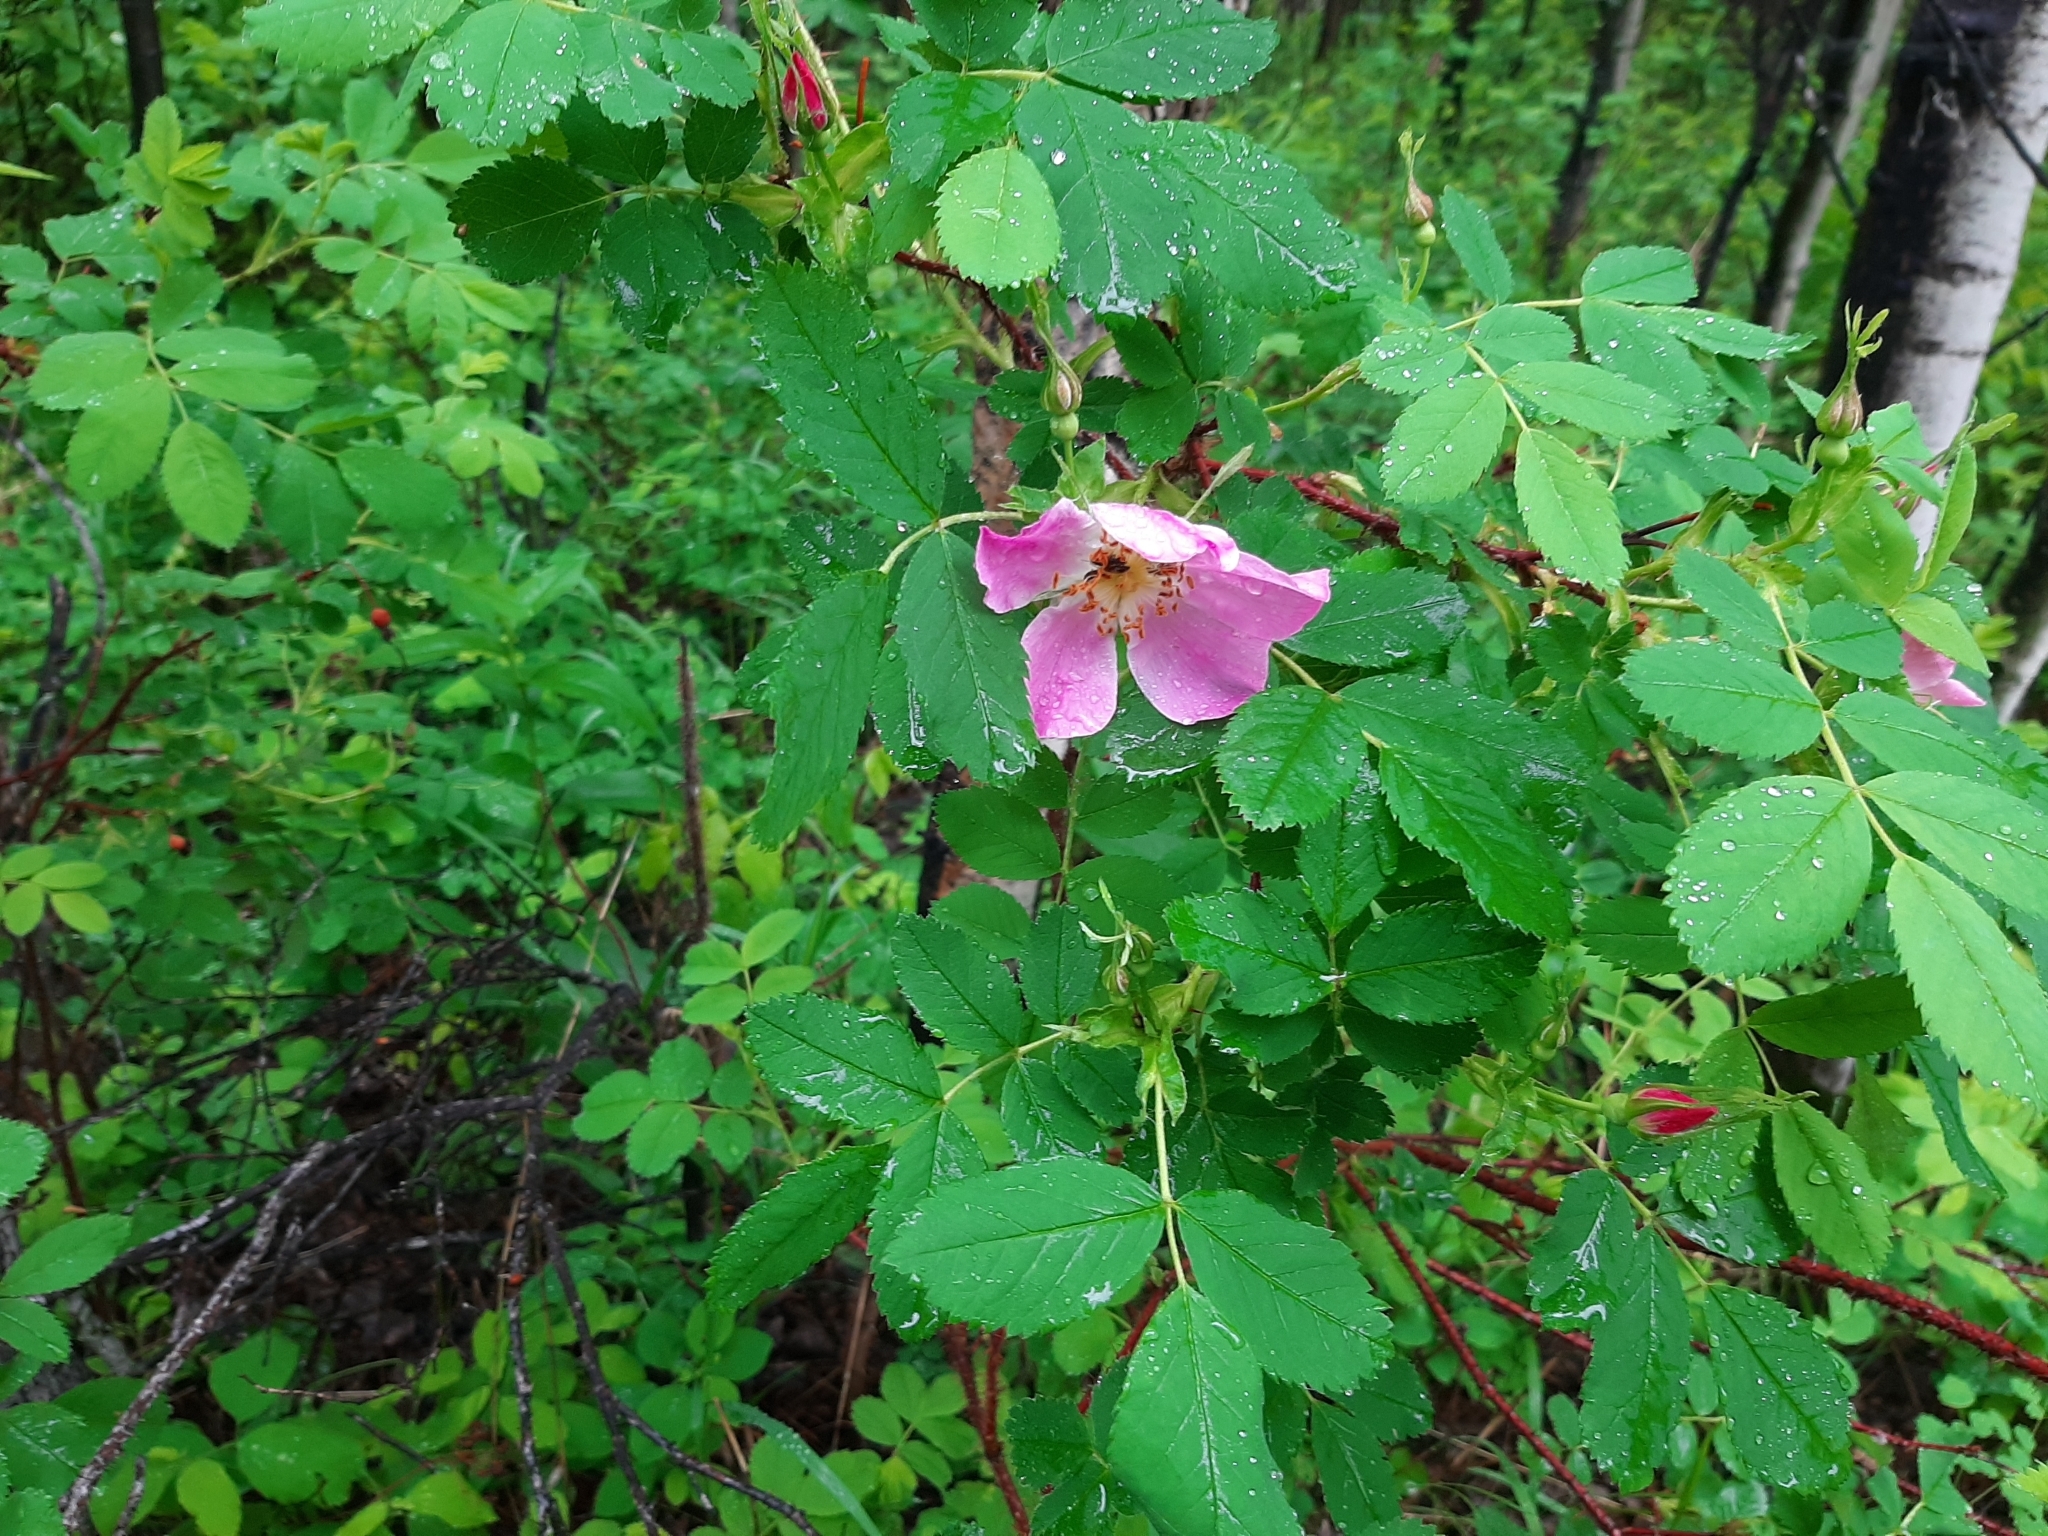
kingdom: Plantae
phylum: Tracheophyta
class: Magnoliopsida
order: Rosales
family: Rosaceae
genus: Rosa
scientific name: Rosa acicularis
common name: Prickly rose
